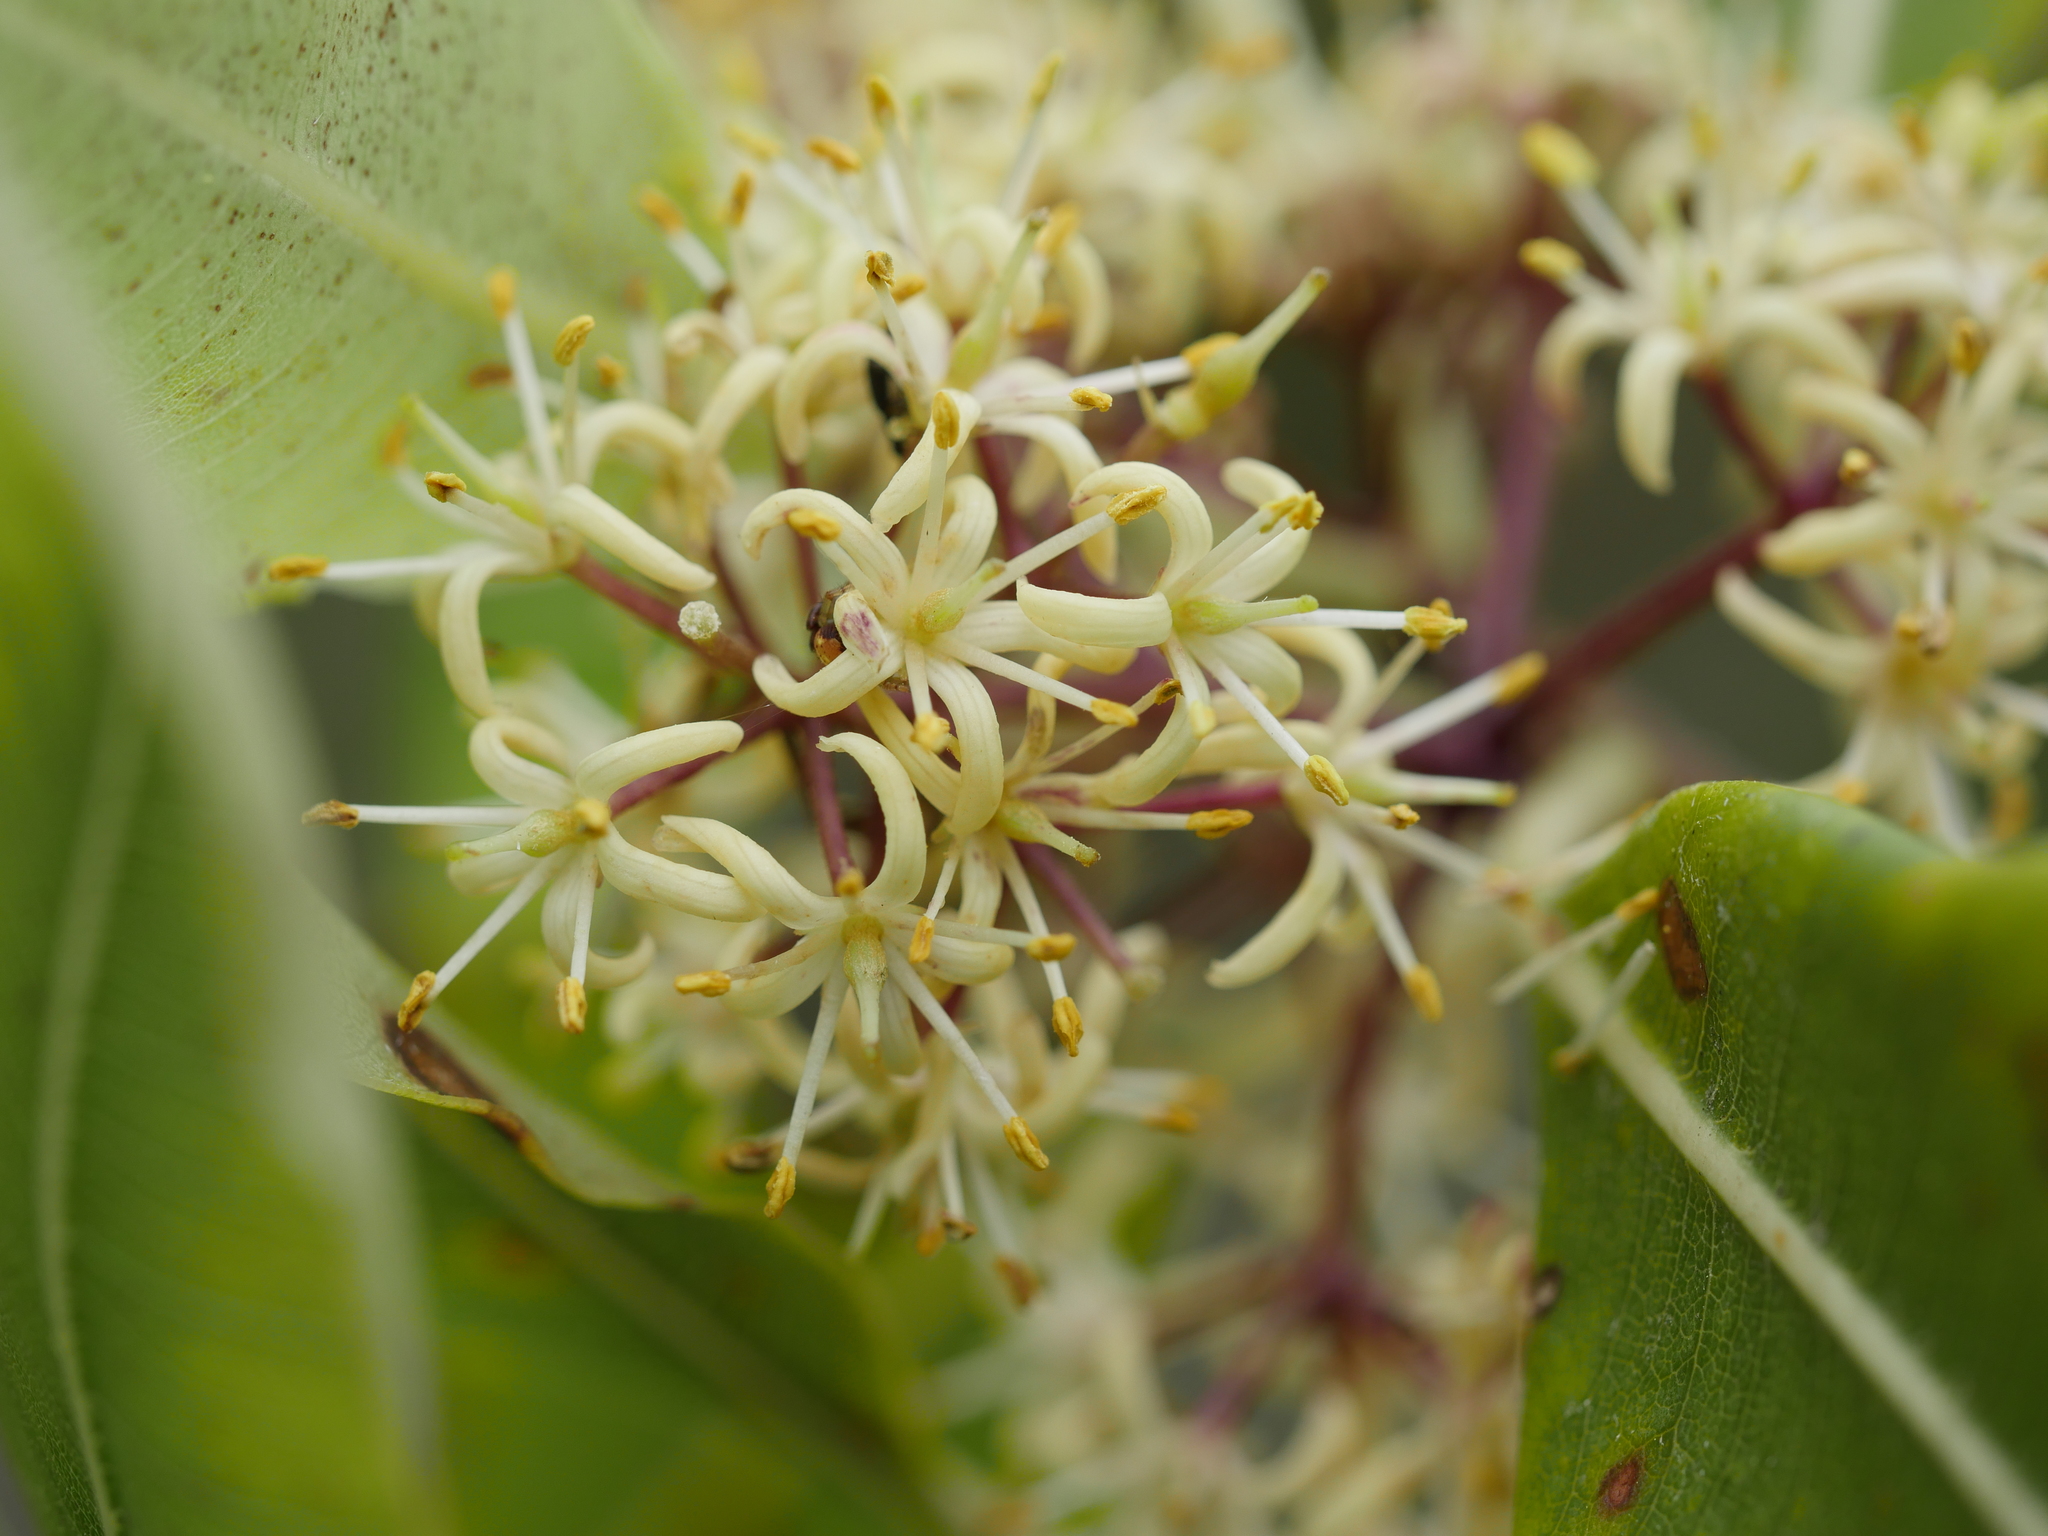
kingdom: Plantae
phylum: Tracheophyta
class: Magnoliopsida
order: Apiales
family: Pittosporaceae
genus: Pittosporum
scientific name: Pittosporum eugenioides
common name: Lemonwood
